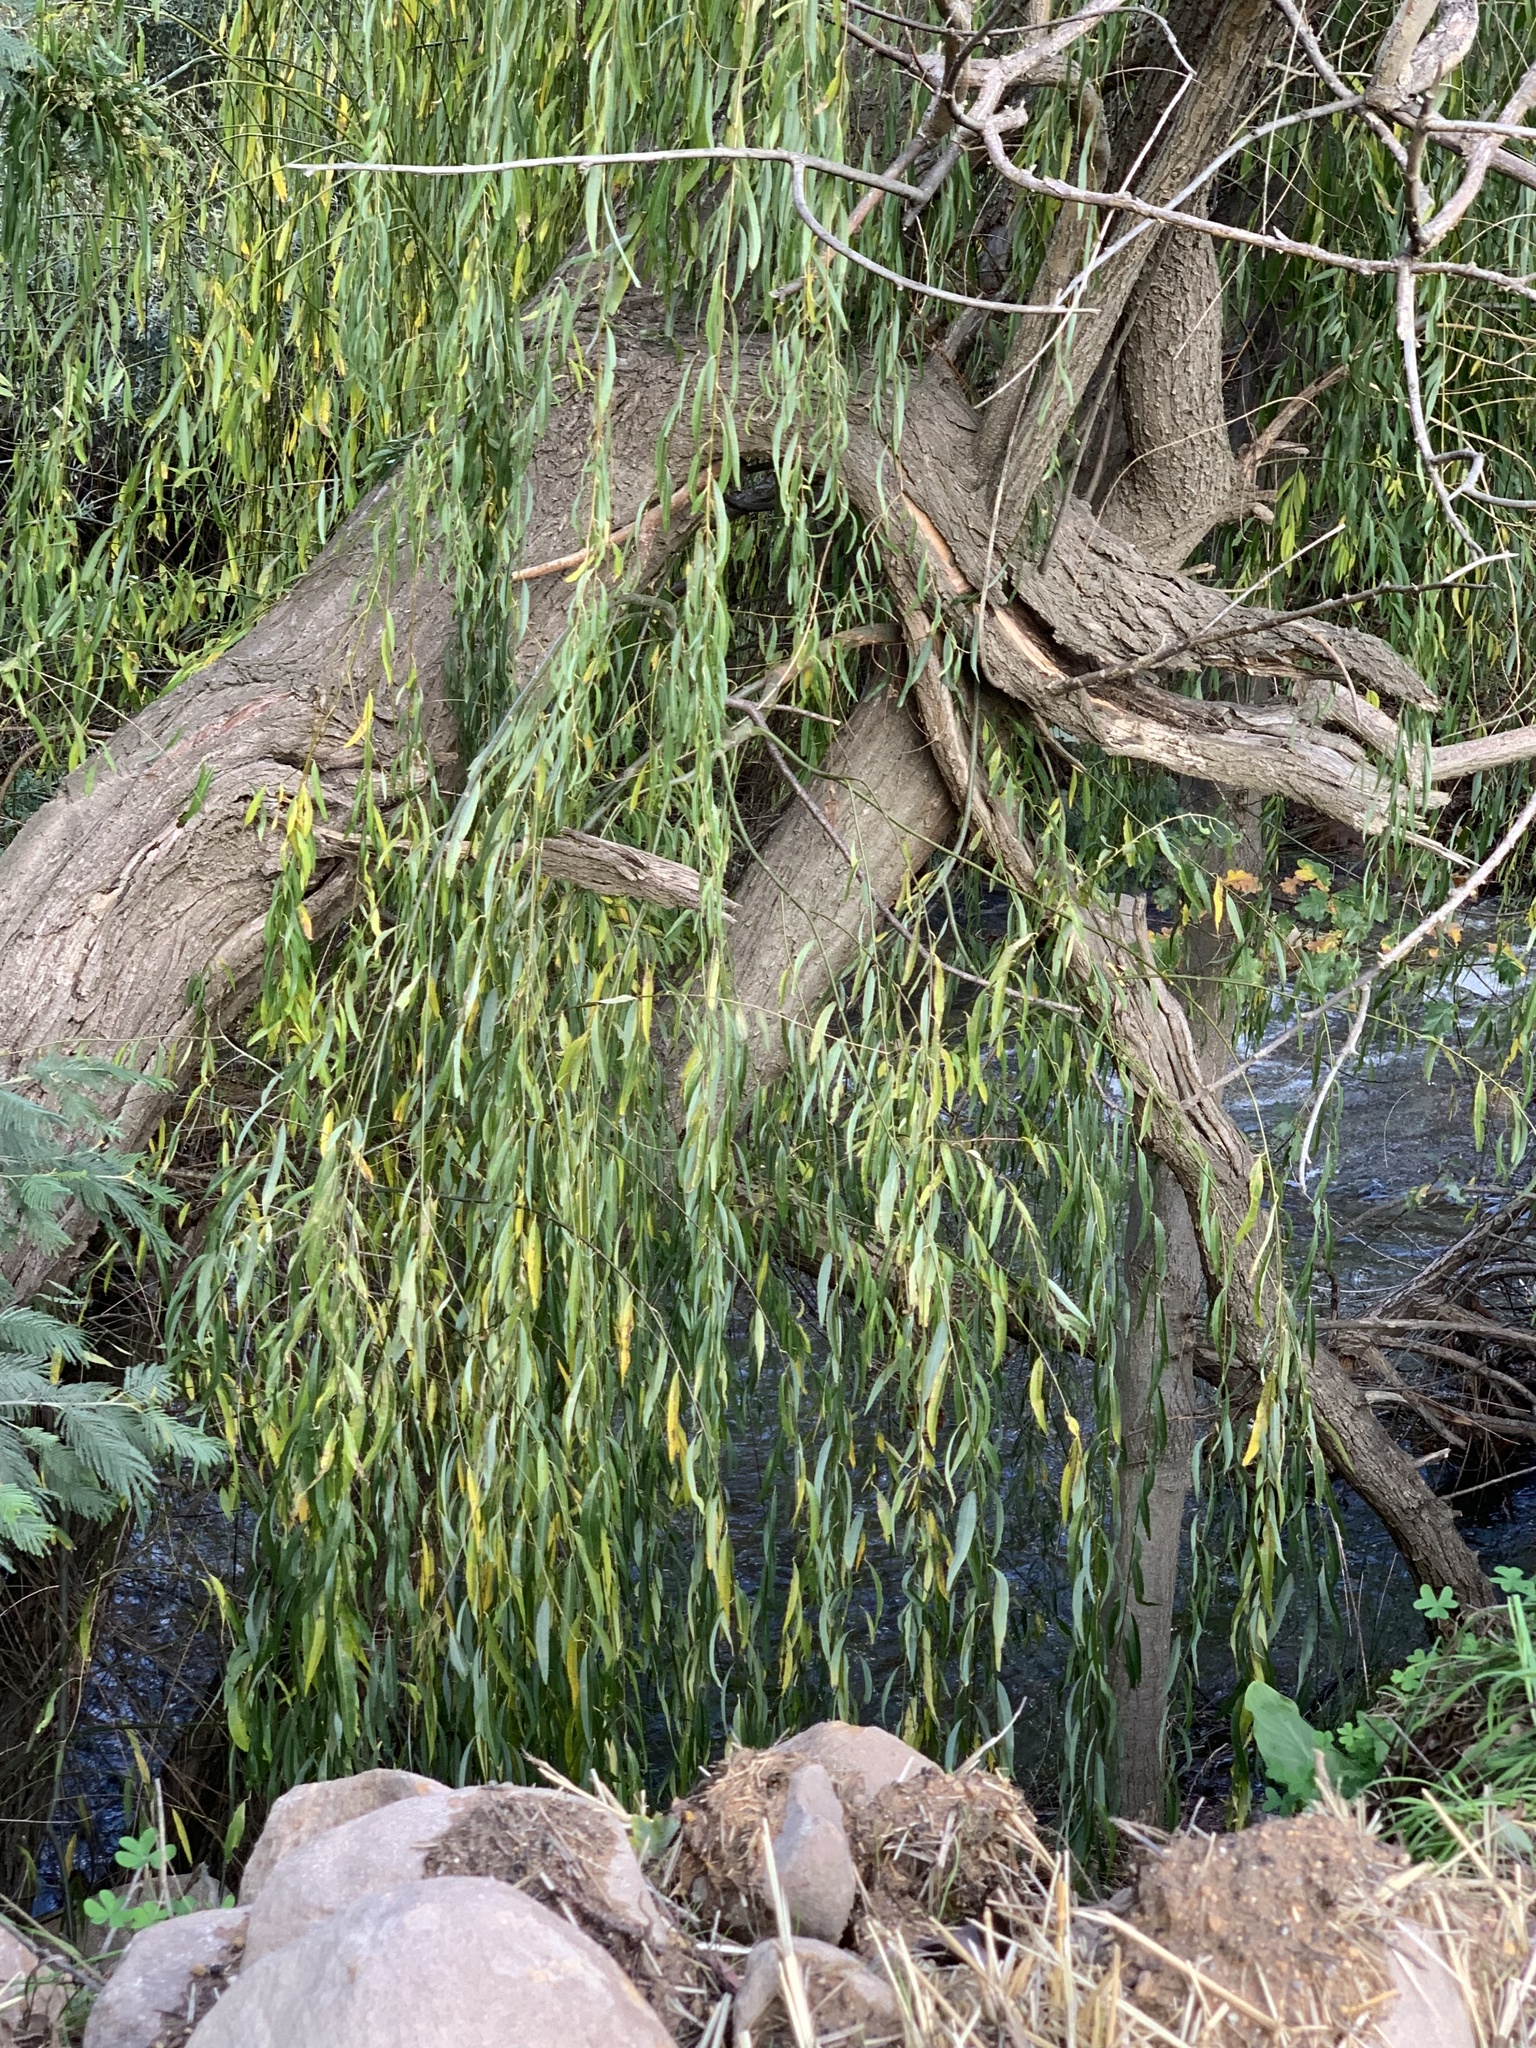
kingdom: Plantae
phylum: Tracheophyta
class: Magnoliopsida
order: Malpighiales
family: Salicaceae
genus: Salix
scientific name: Salix babylonica
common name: Weeping willow
